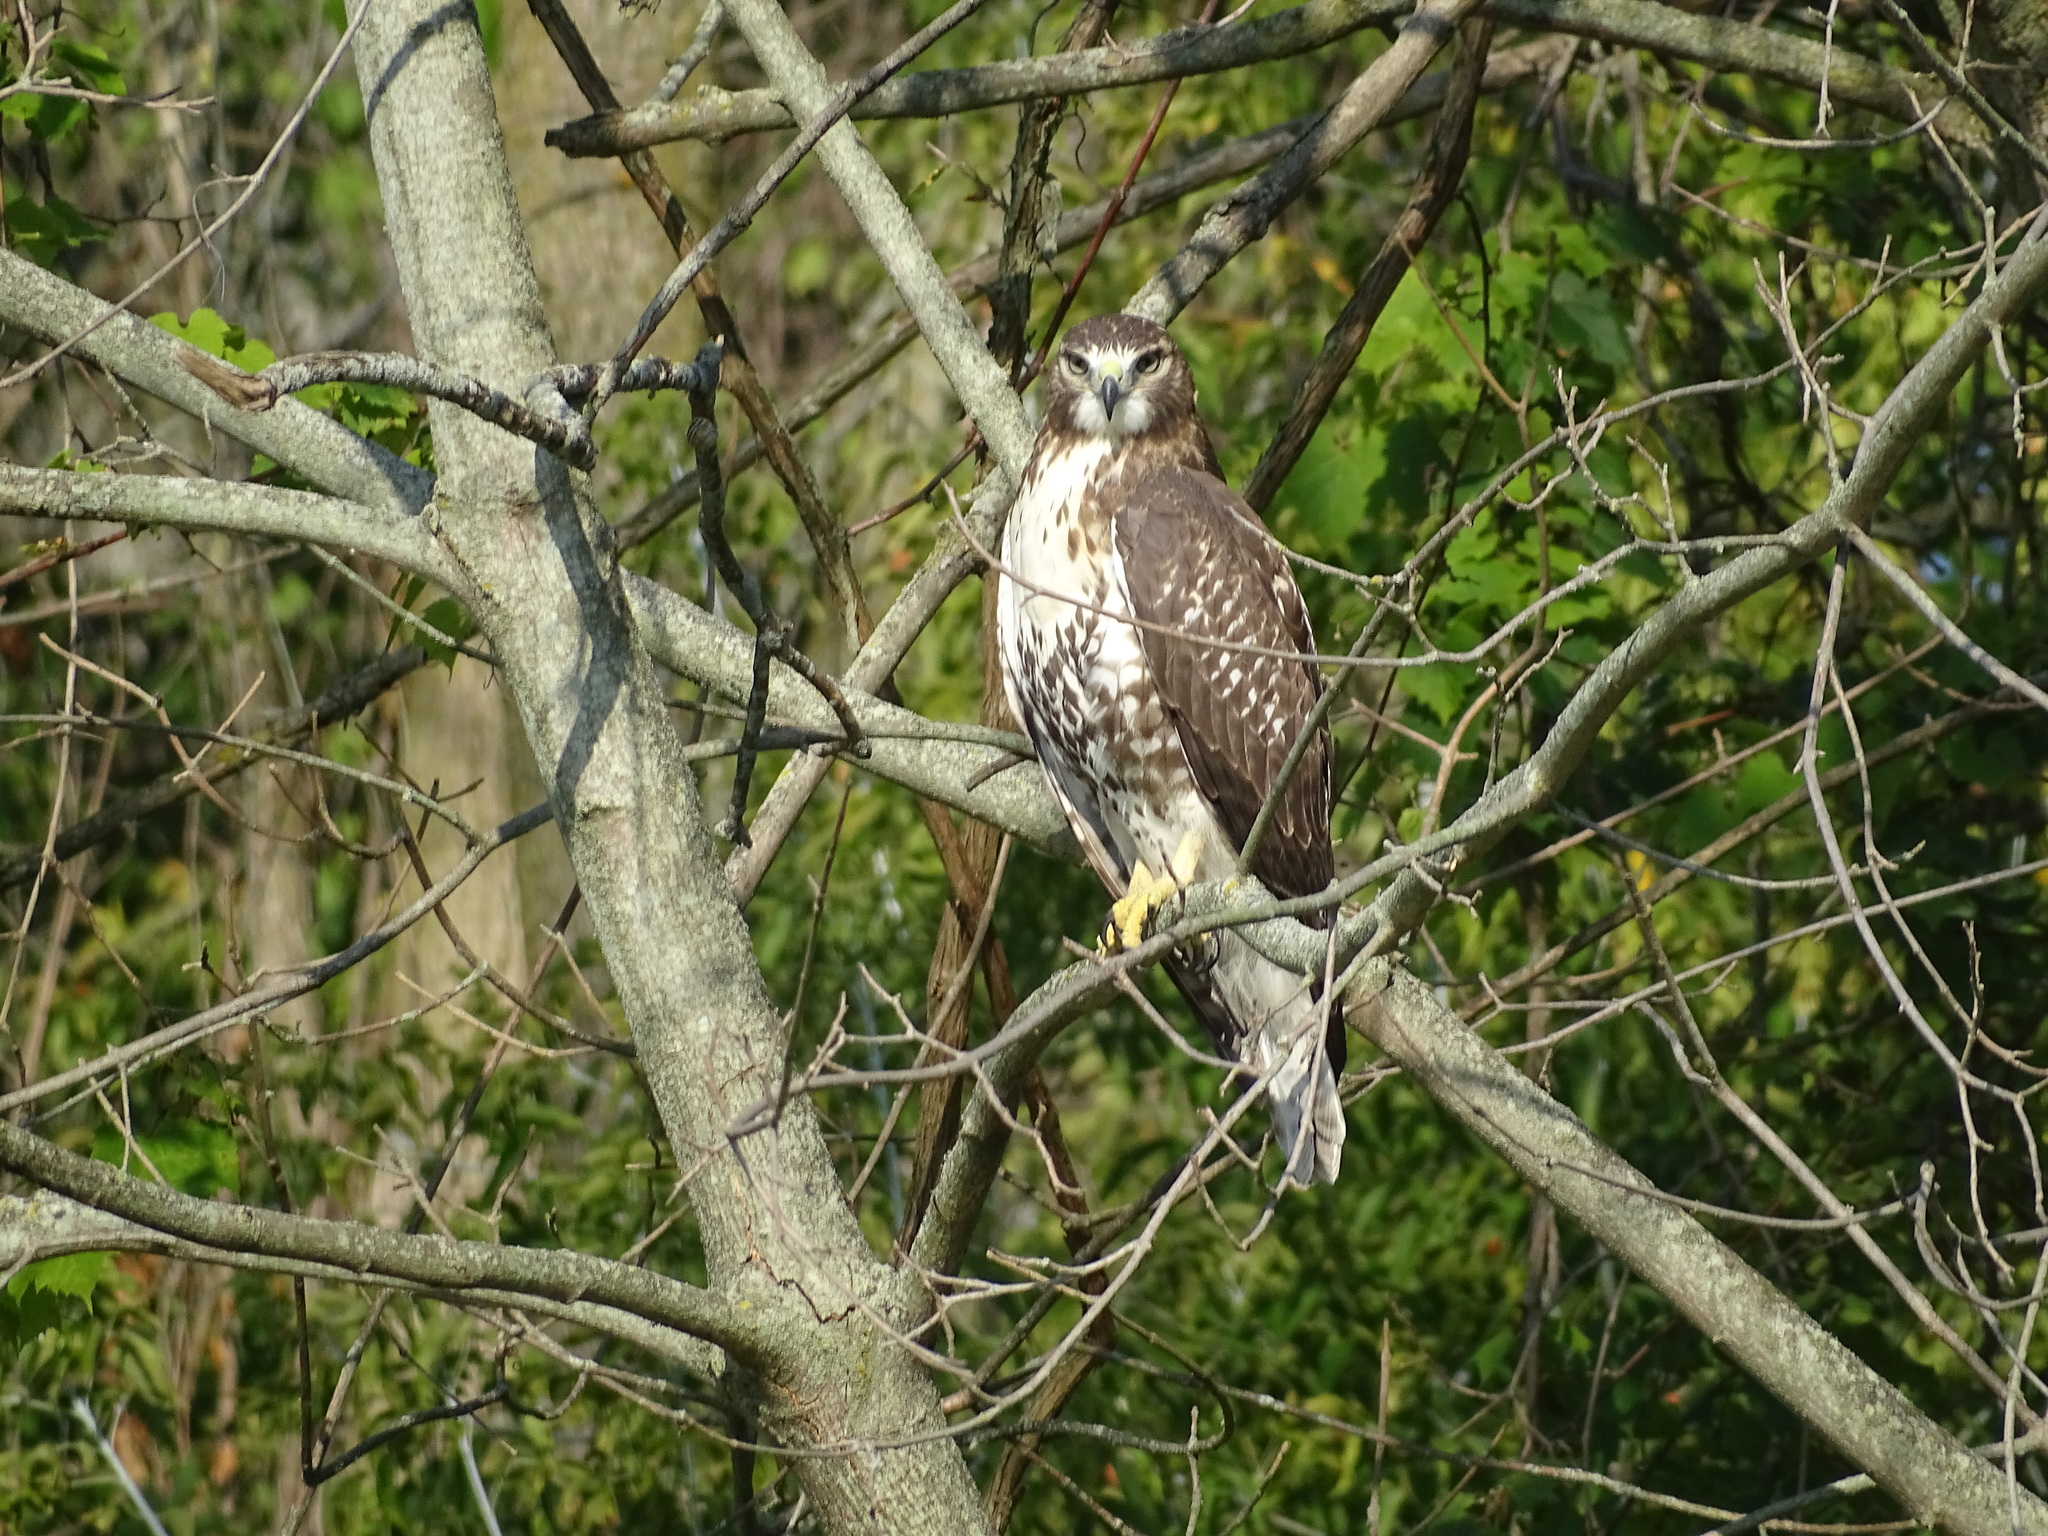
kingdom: Animalia
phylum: Chordata
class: Aves
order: Accipitriformes
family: Accipitridae
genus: Buteo
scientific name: Buteo jamaicensis
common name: Red-tailed hawk
